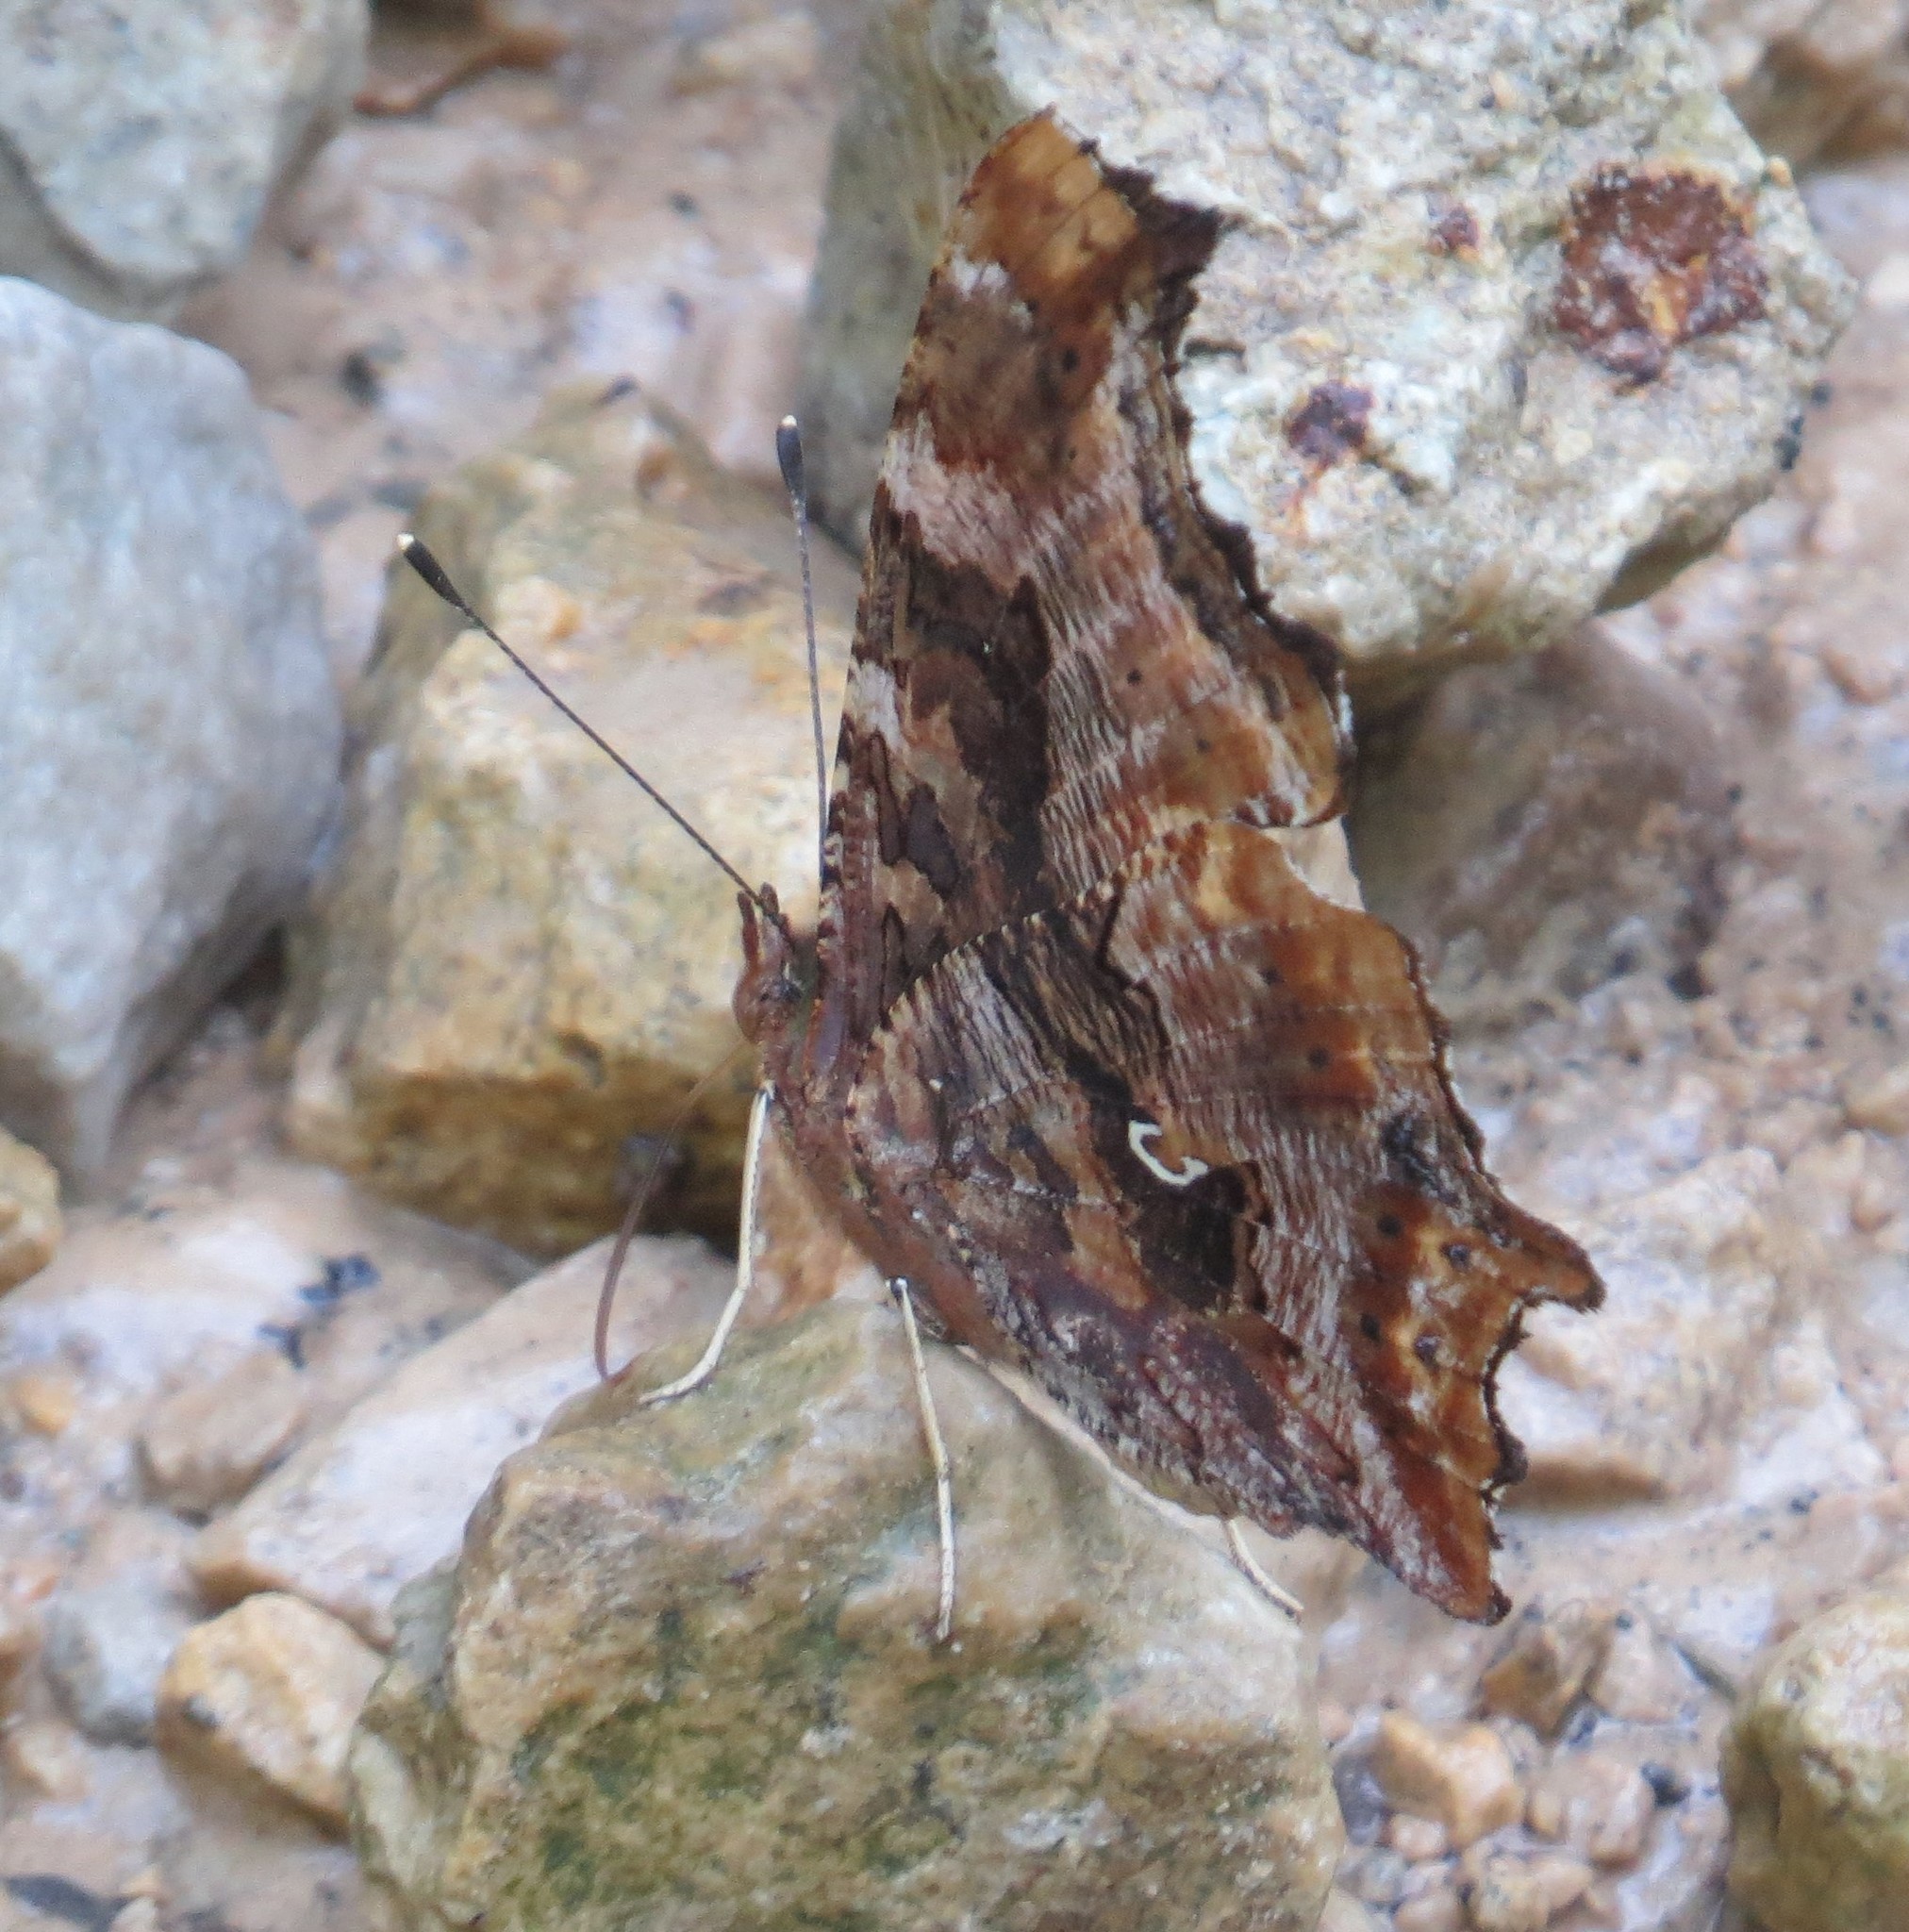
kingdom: Animalia
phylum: Arthropoda
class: Insecta
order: Lepidoptera
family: Nymphalidae
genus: Polygonia
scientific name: Polygonia comma
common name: Eastern comma
